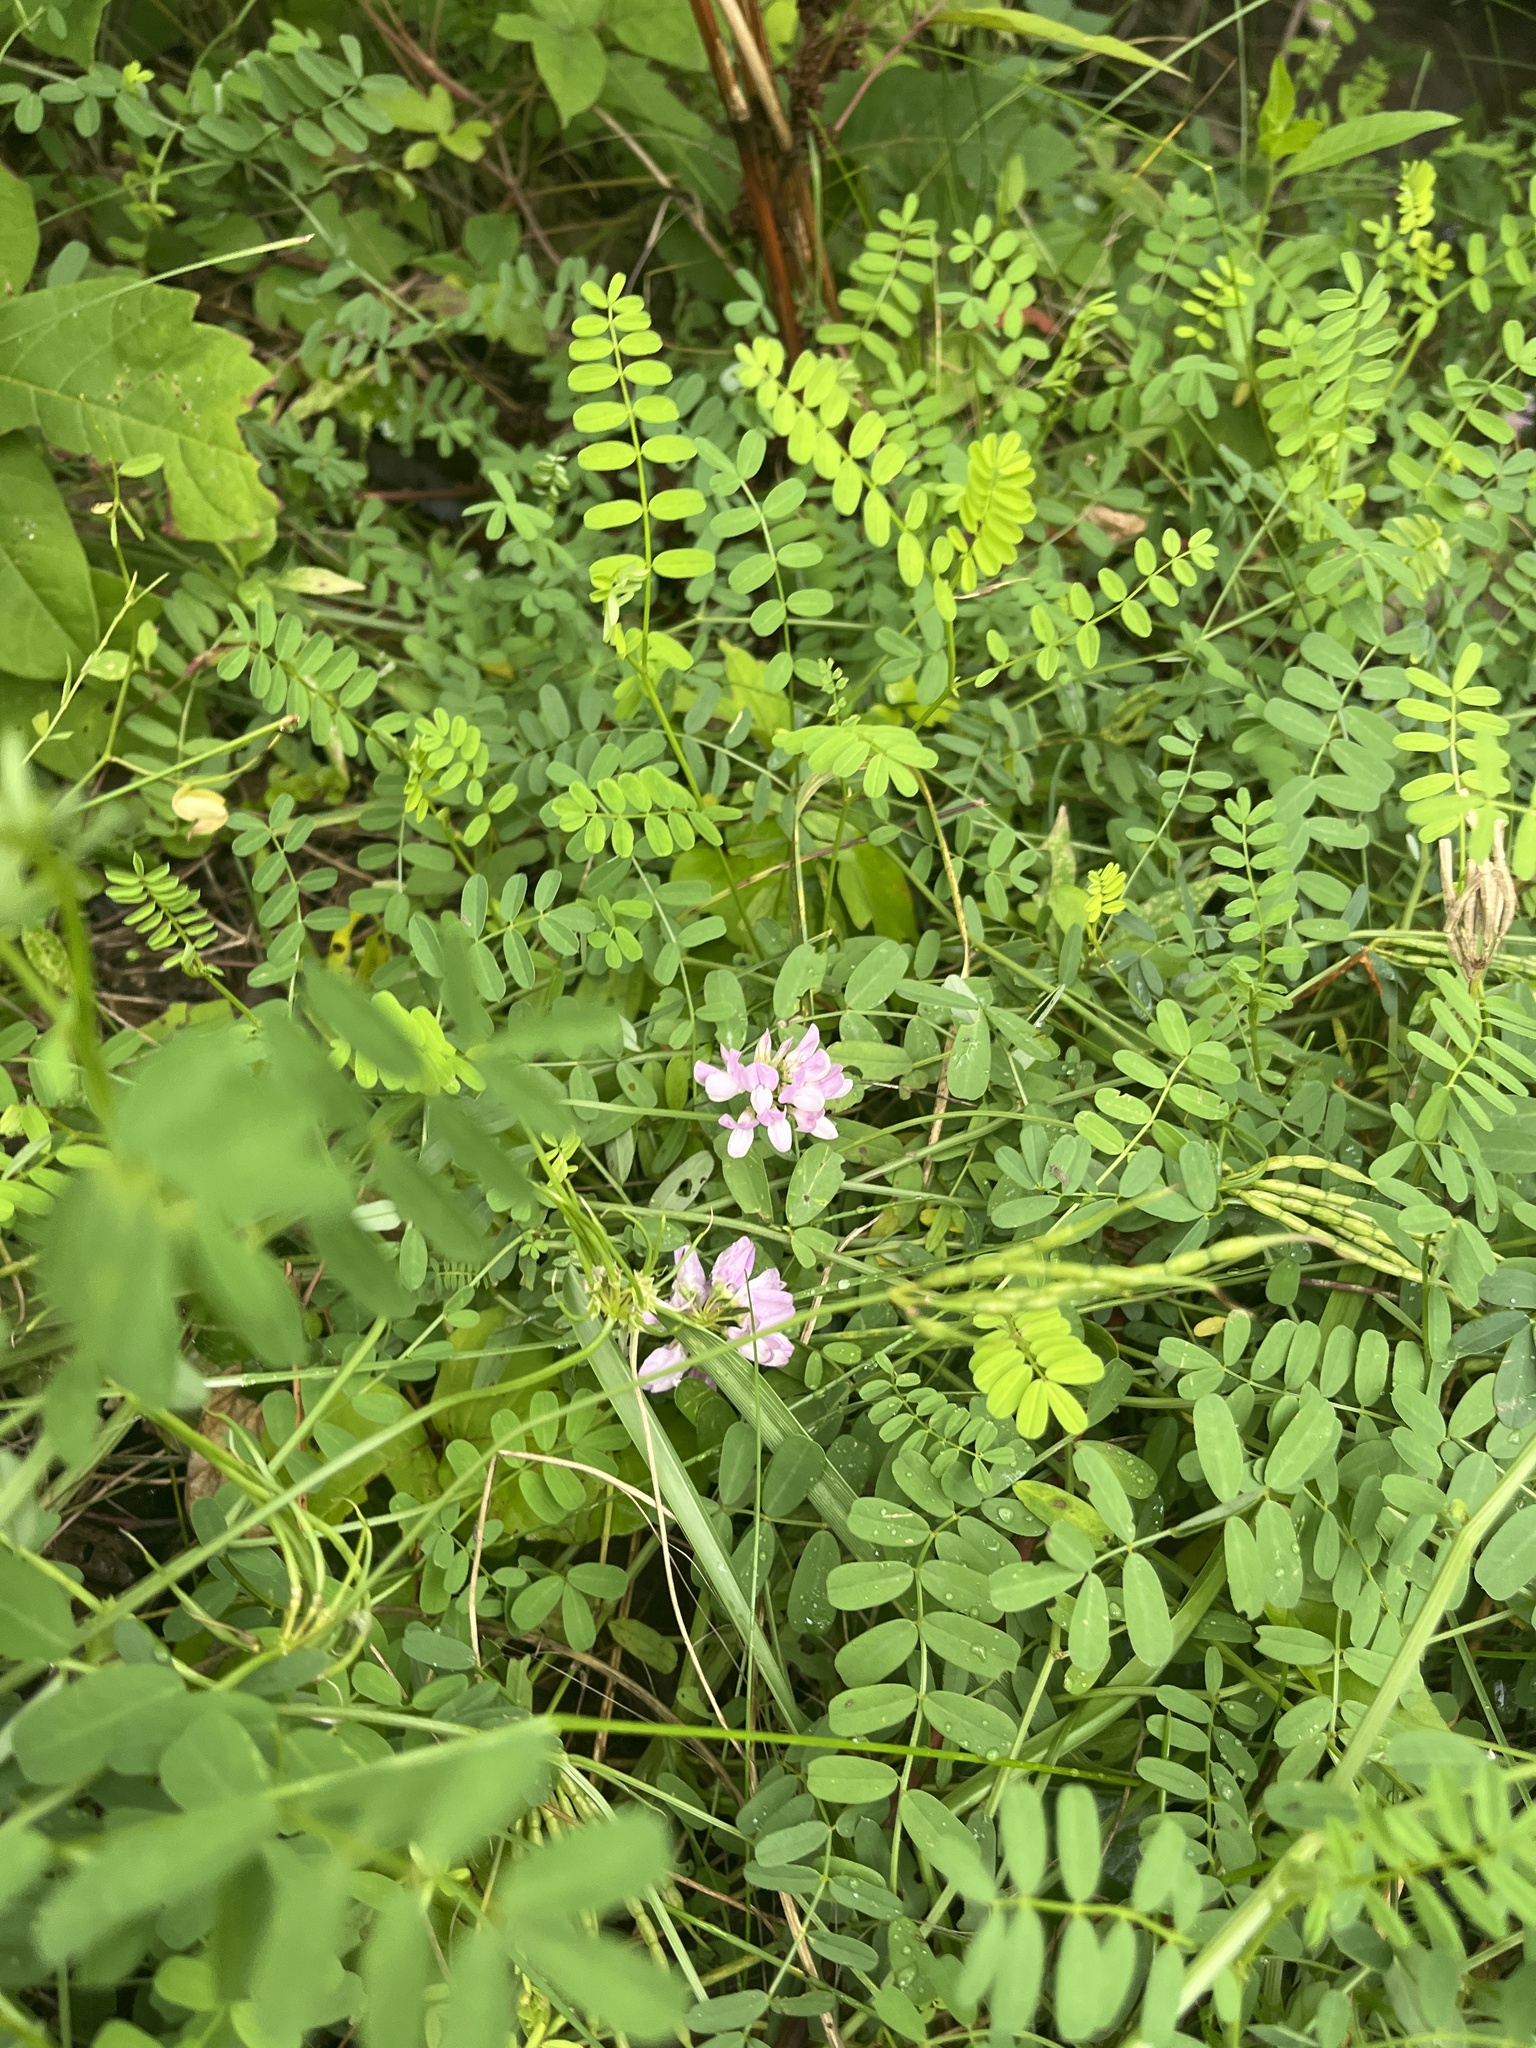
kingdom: Plantae
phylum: Tracheophyta
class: Magnoliopsida
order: Fabales
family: Fabaceae
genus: Coronilla
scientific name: Coronilla varia
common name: Crownvetch
